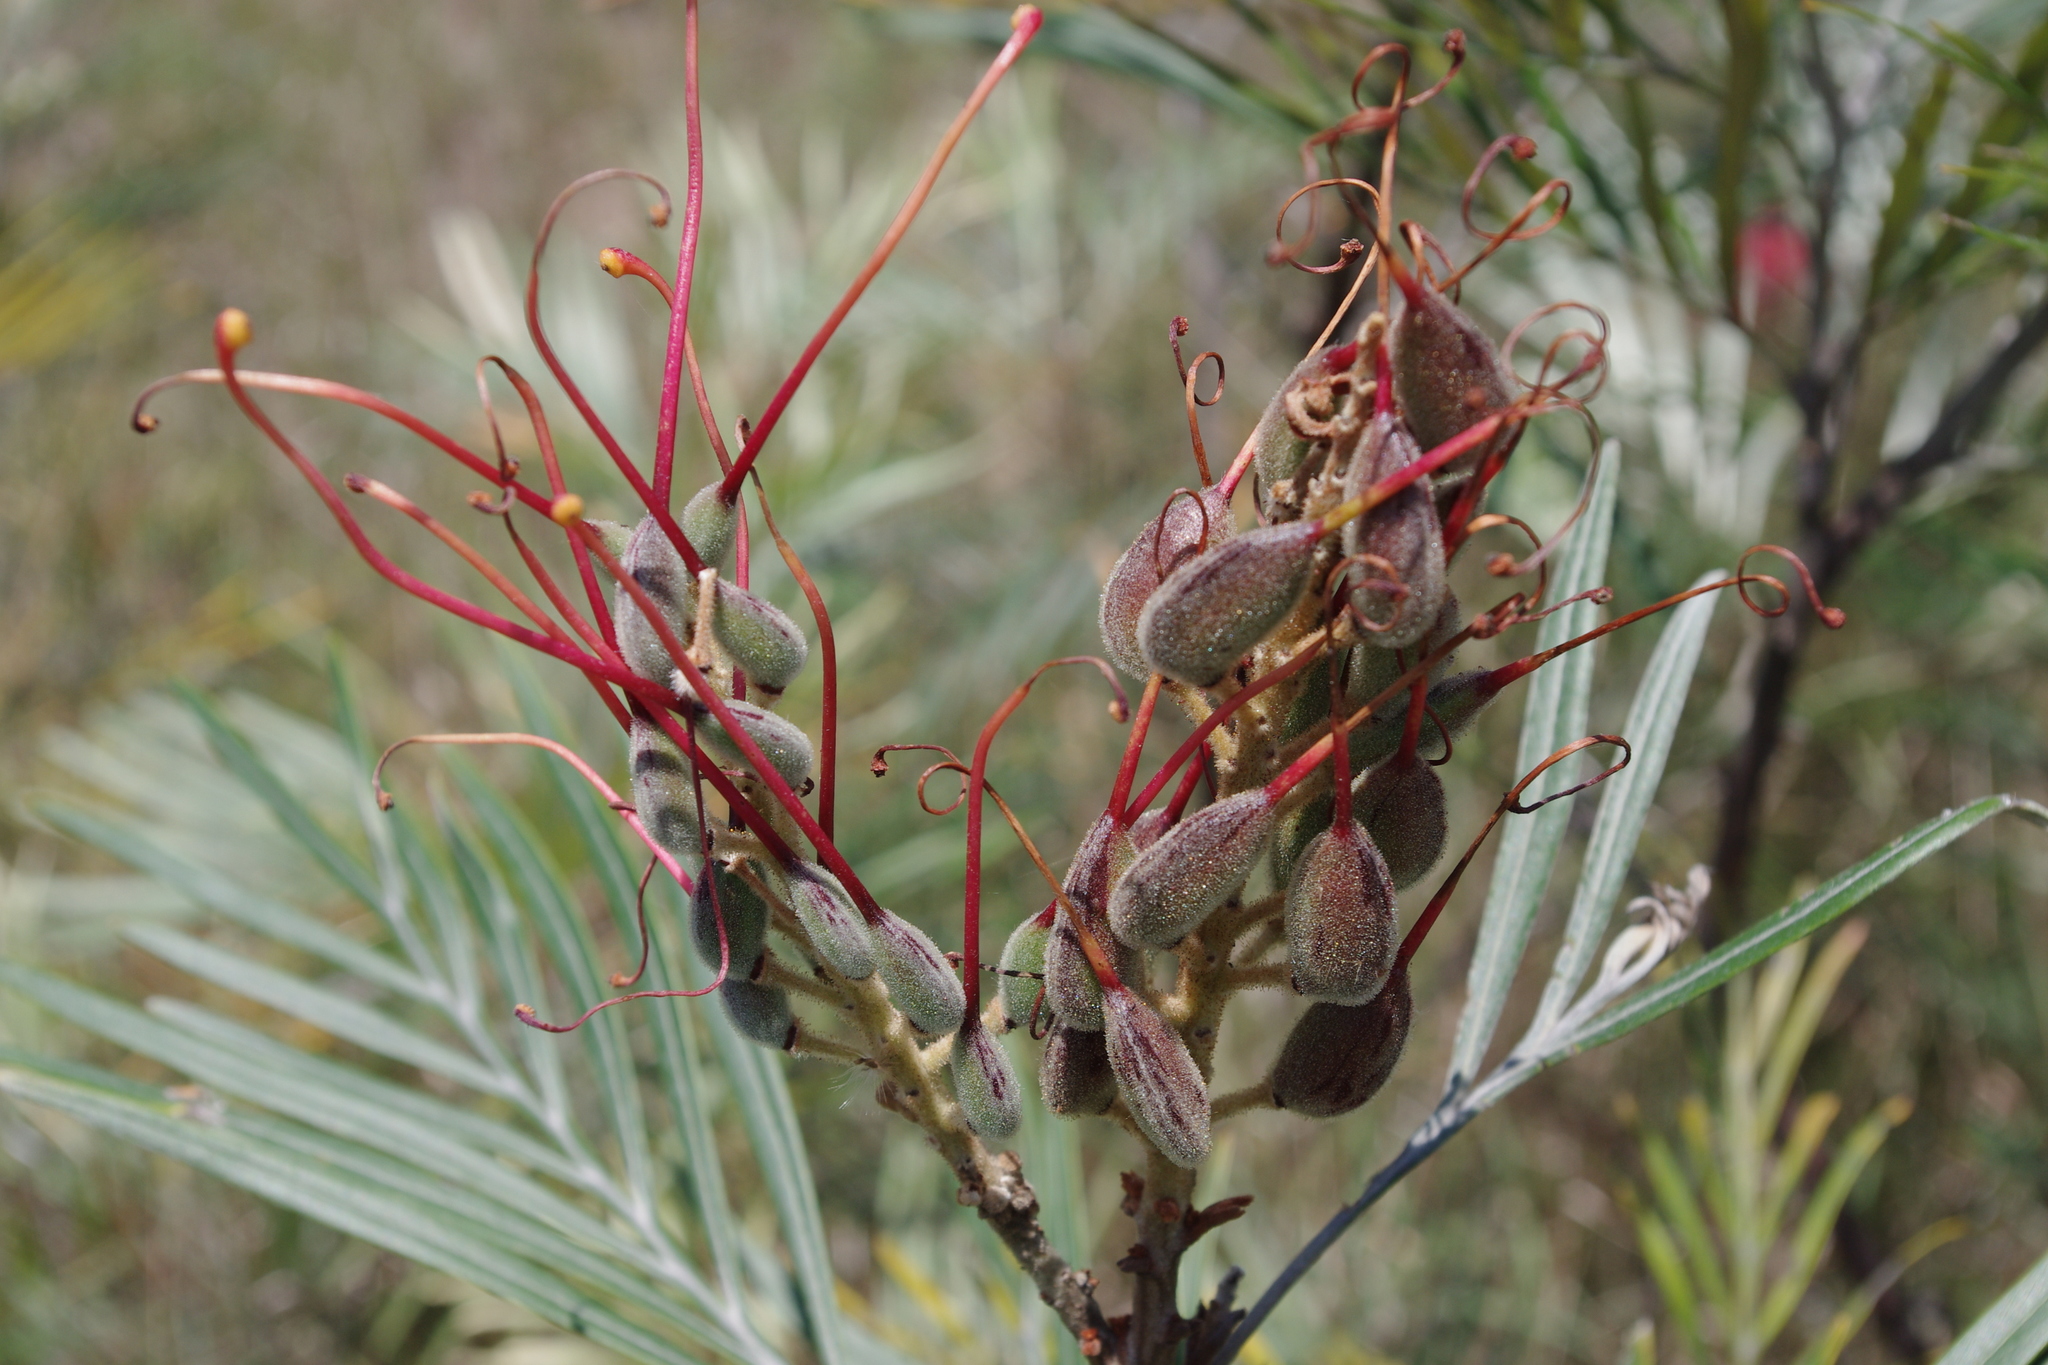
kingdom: Plantae
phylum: Tracheophyta
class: Magnoliopsida
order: Proteales
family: Proteaceae
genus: Grevillea
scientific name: Grevillea banksii
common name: Kahili flower
